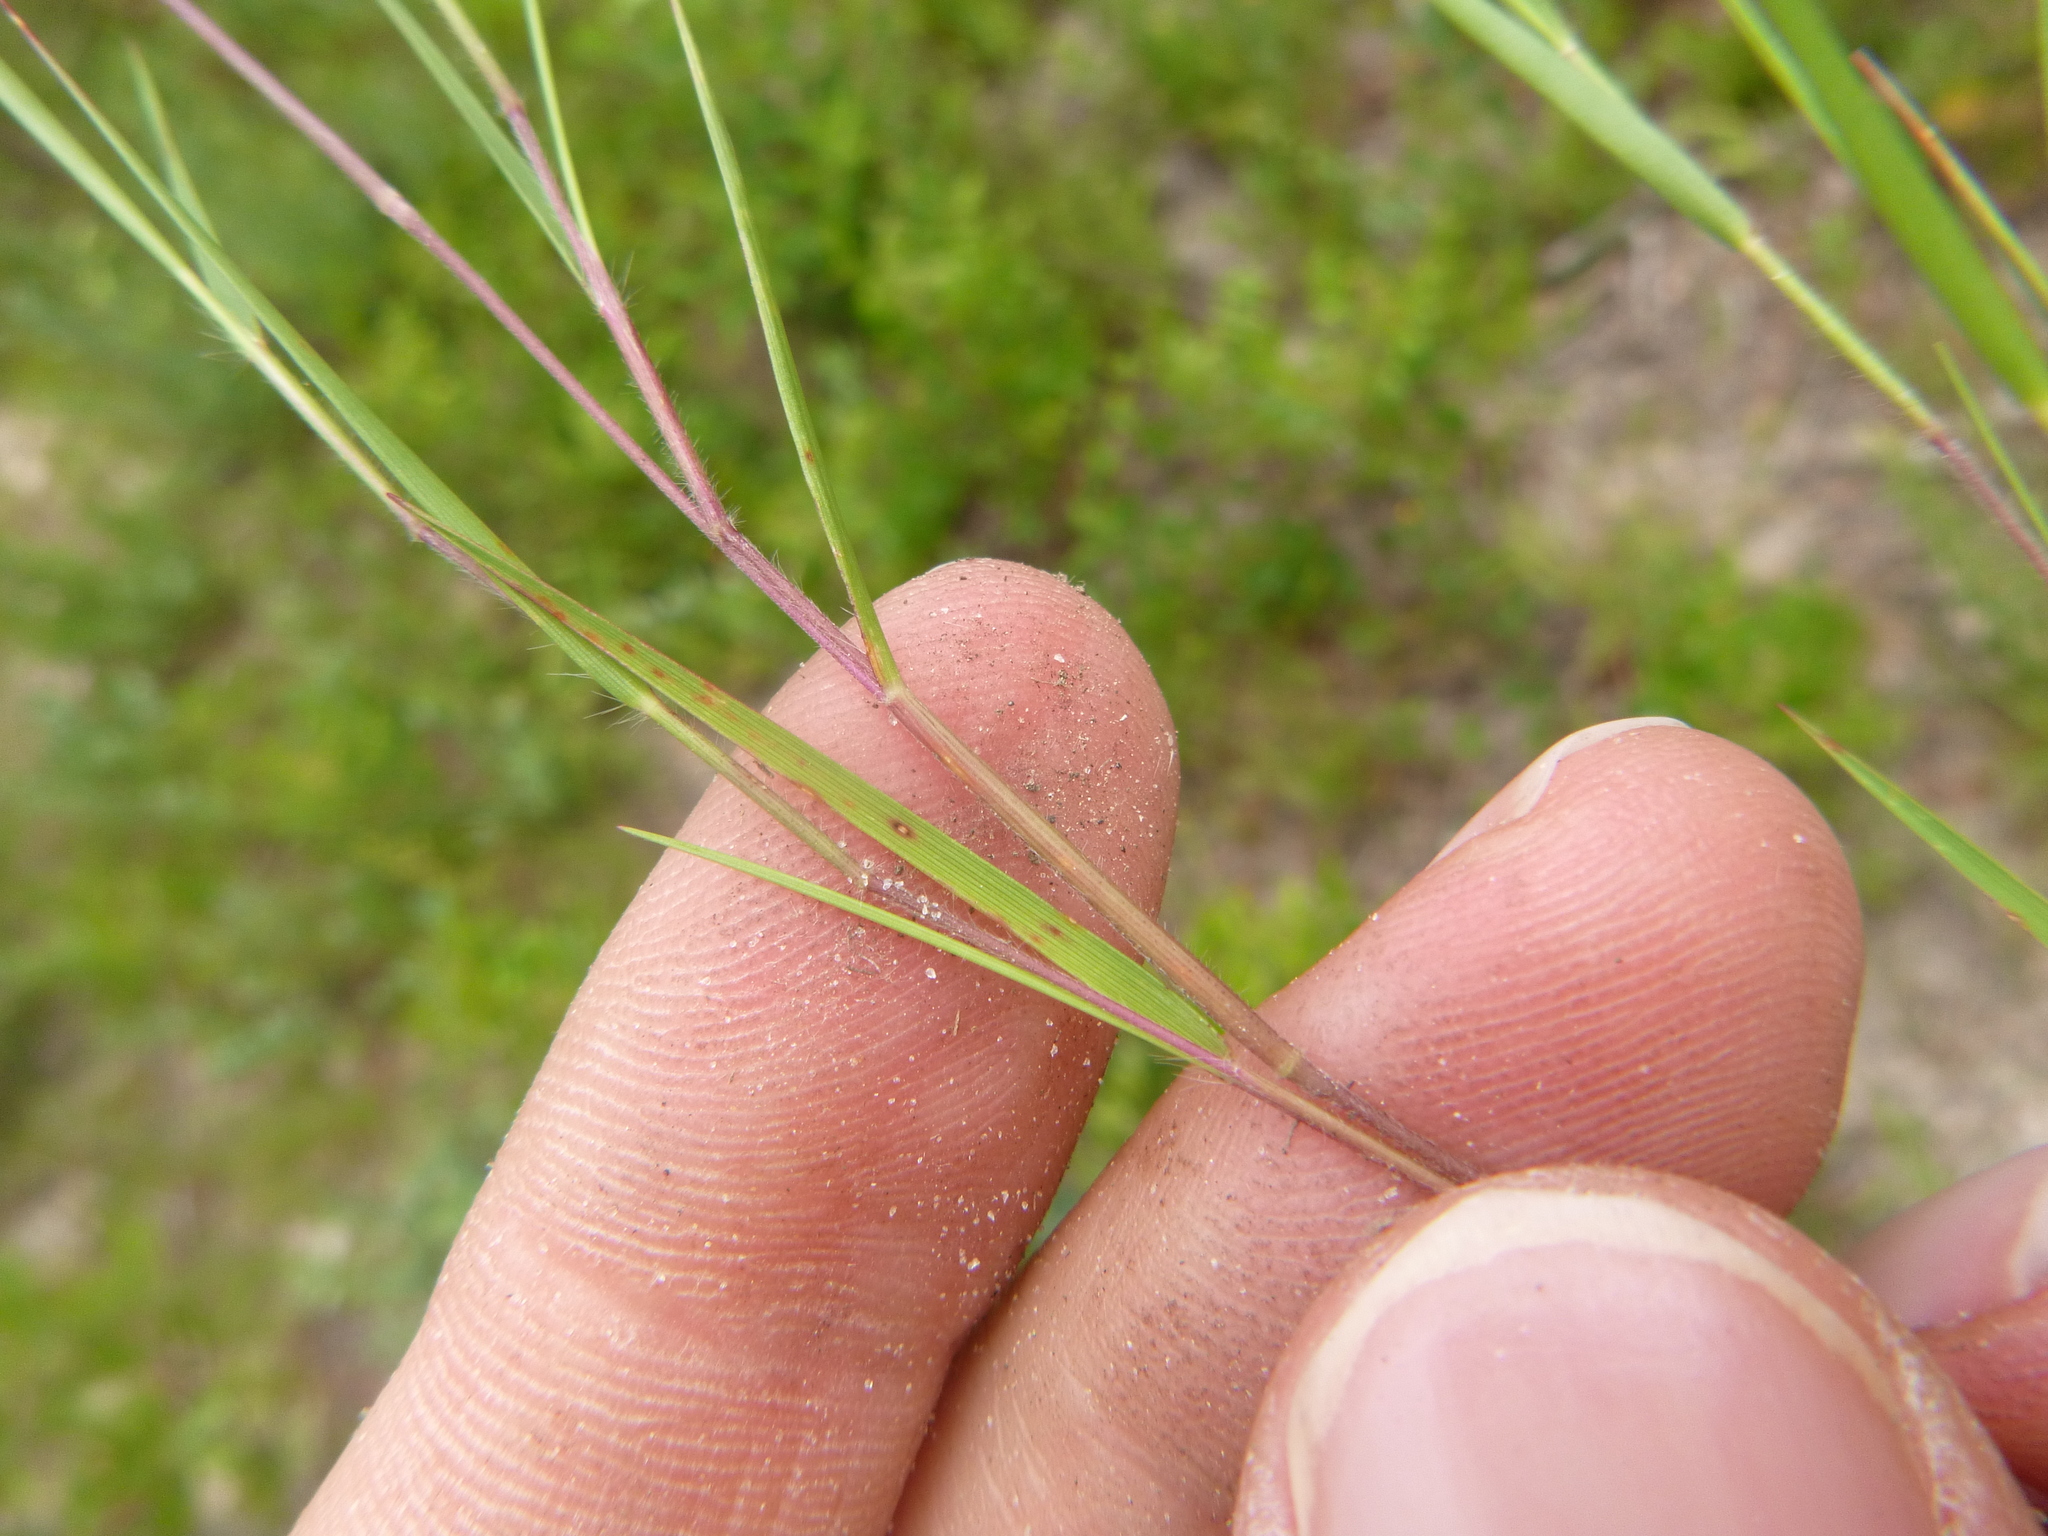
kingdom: Plantae
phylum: Tracheophyta
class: Liliopsida
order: Poales
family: Poaceae
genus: Dichanthelium
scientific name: Dichanthelium filiramum
